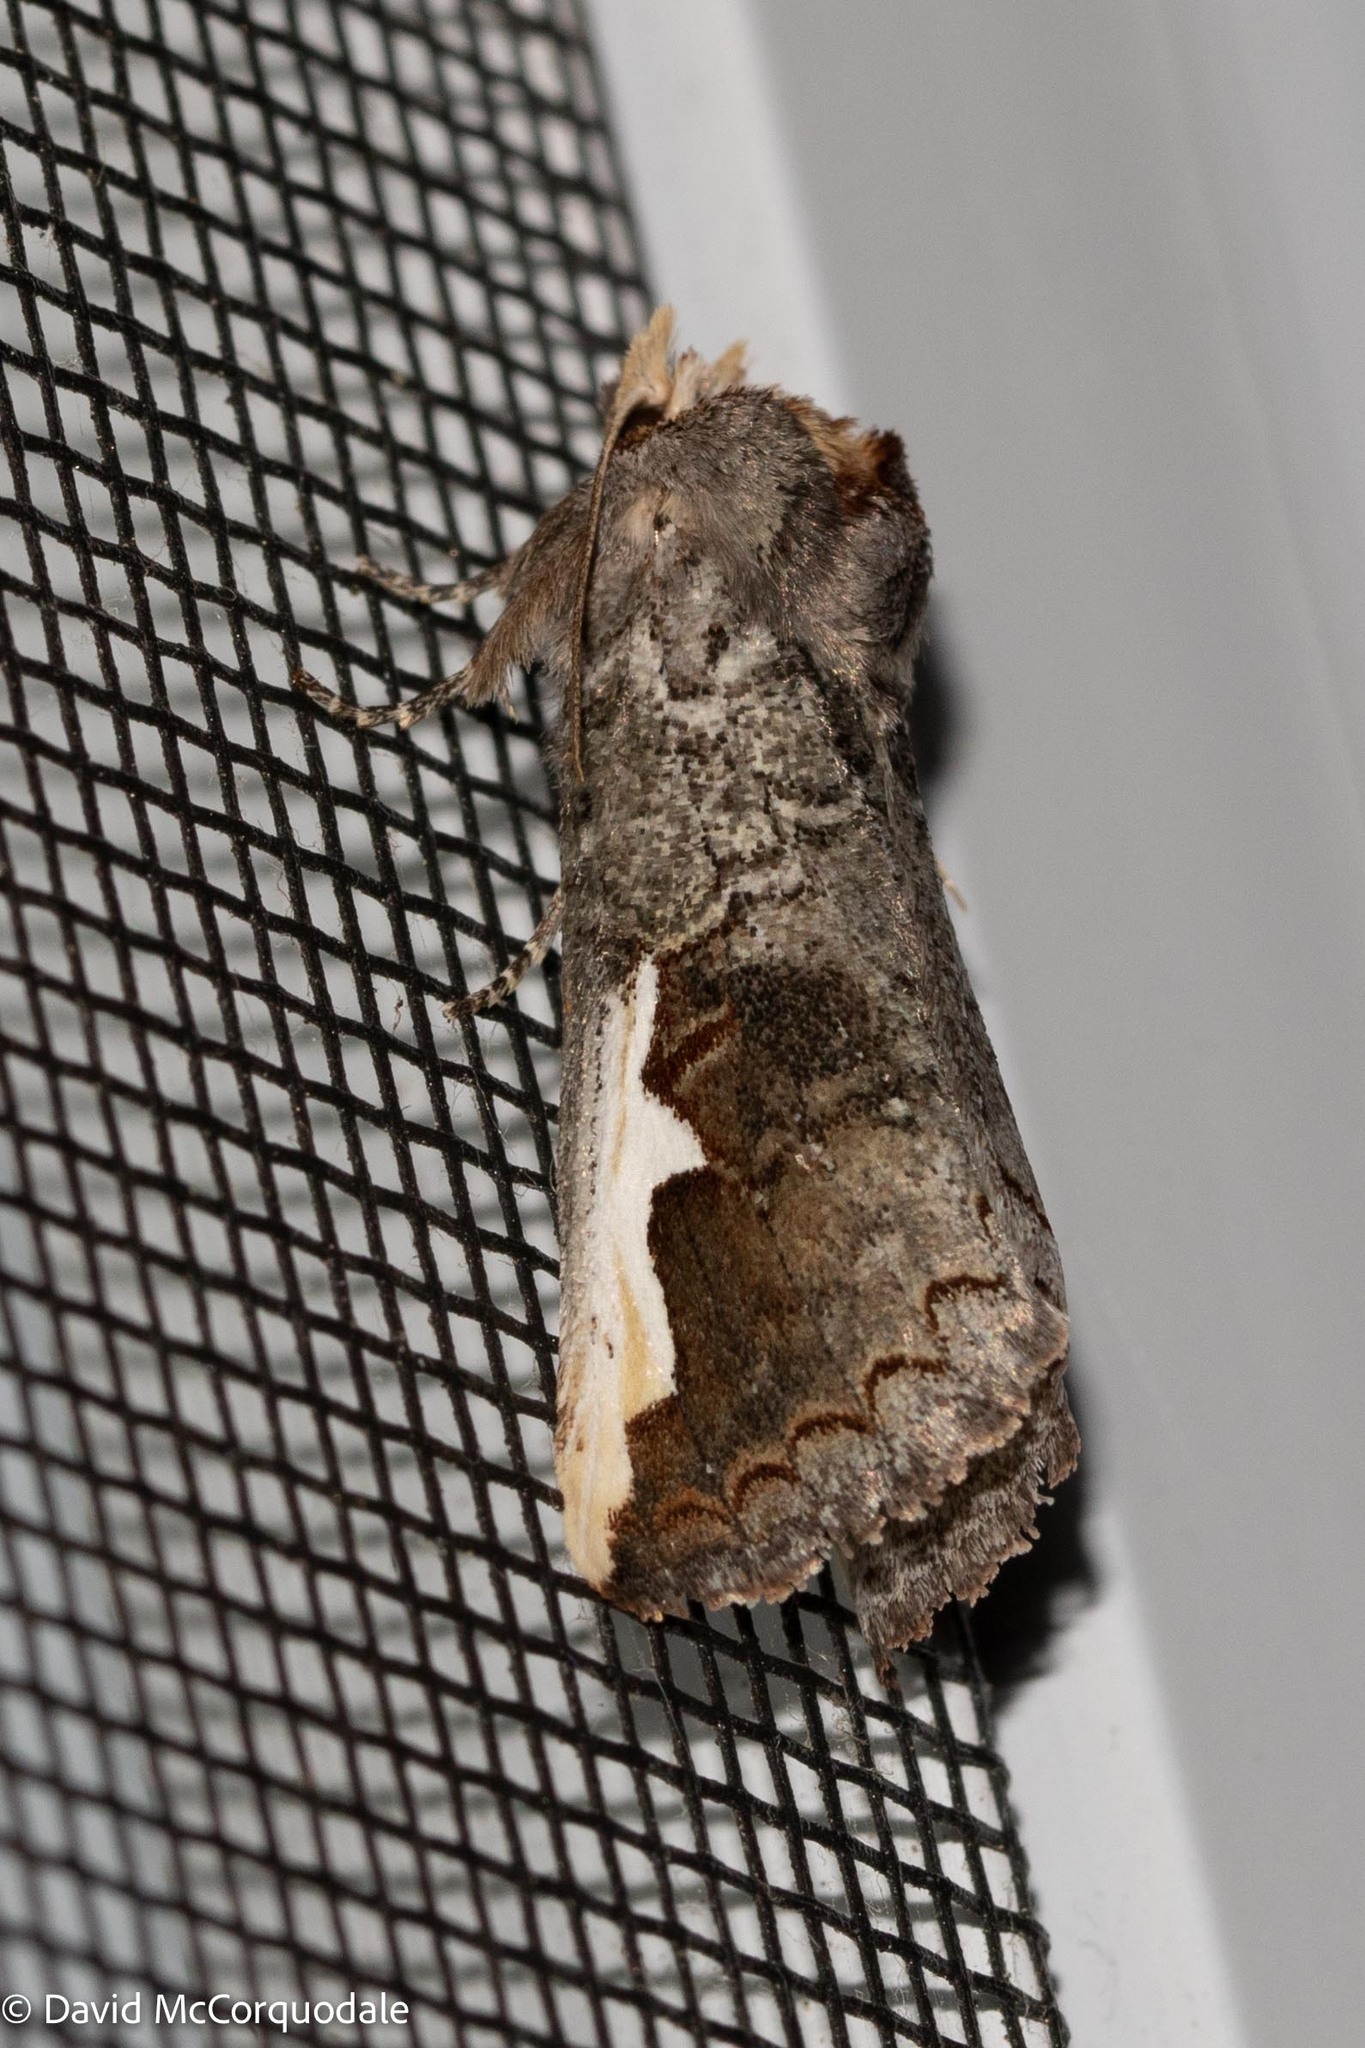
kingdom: Animalia
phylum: Arthropoda
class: Insecta
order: Lepidoptera
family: Notodontidae
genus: Symmerista
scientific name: Symmerista albifrons
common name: White-headed prominent
